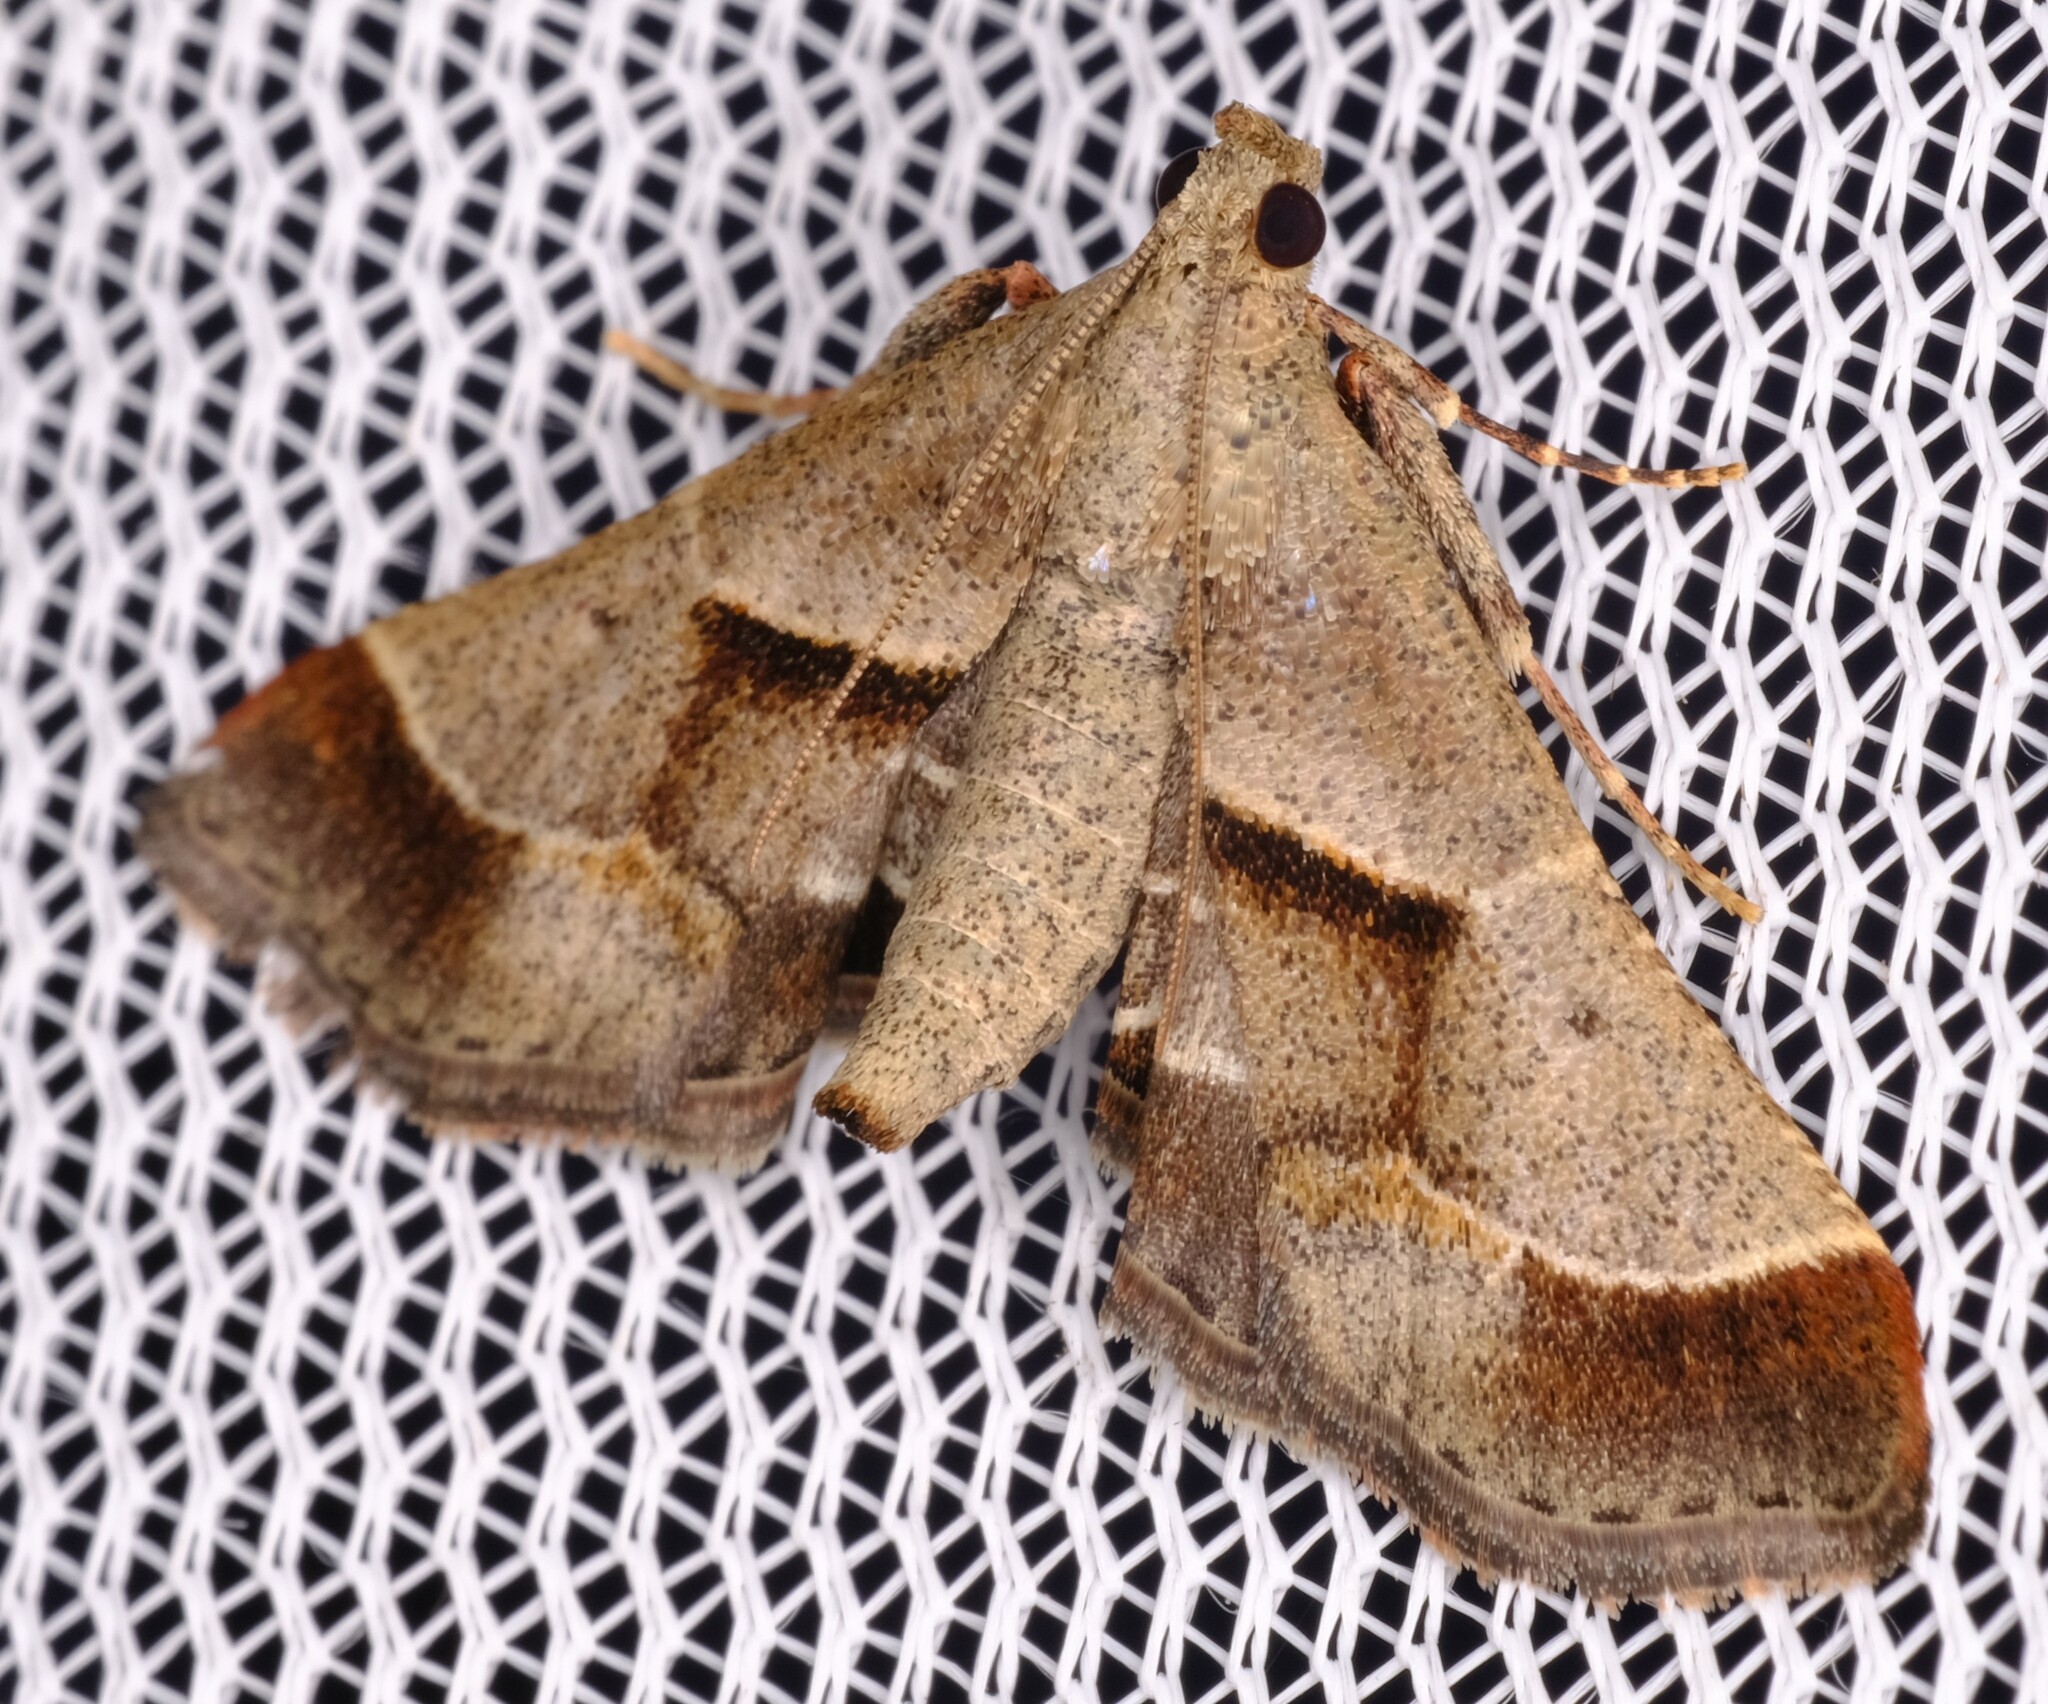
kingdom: Animalia
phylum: Arthropoda
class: Insecta
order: Lepidoptera
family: Pyralidae
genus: Gauna
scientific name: Gauna aegusalis
